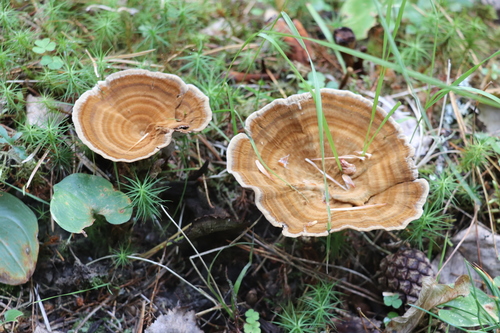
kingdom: Fungi
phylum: Basidiomycota
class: Agaricomycetes
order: Hymenochaetales
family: Hymenochaetaceae
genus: Coltricia
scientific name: Coltricia perennis
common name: Tiger's eye
